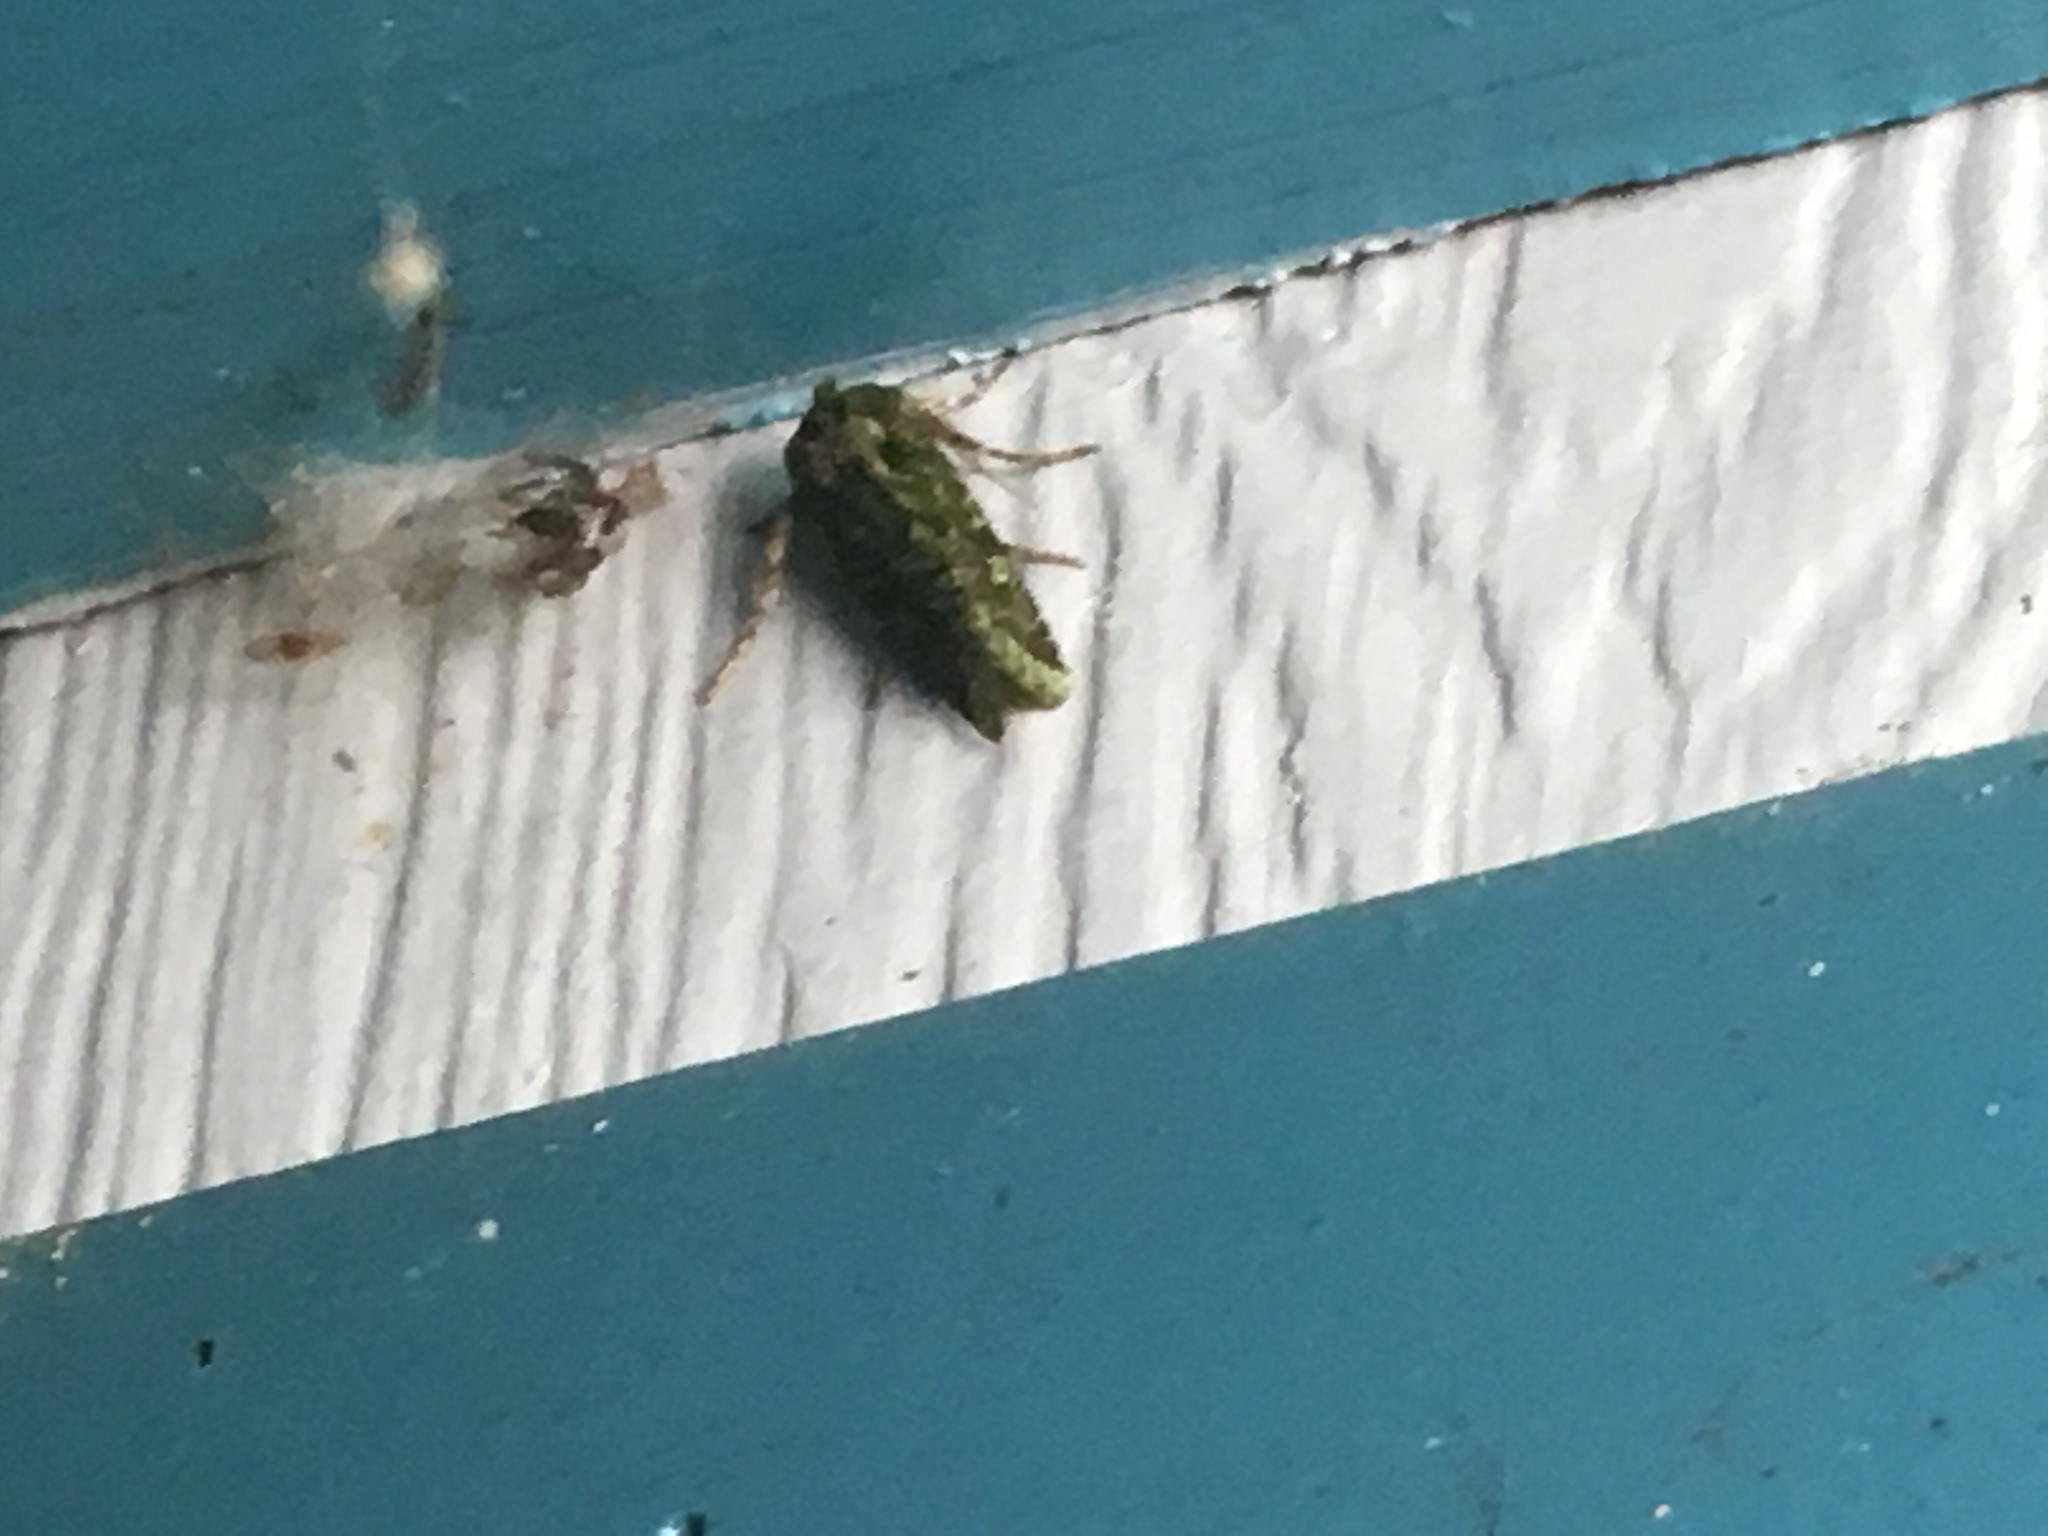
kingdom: Animalia
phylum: Arthropoda
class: Insecta
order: Lepidoptera
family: Noctuidae
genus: Feredayia
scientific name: Feredayia grammosa
